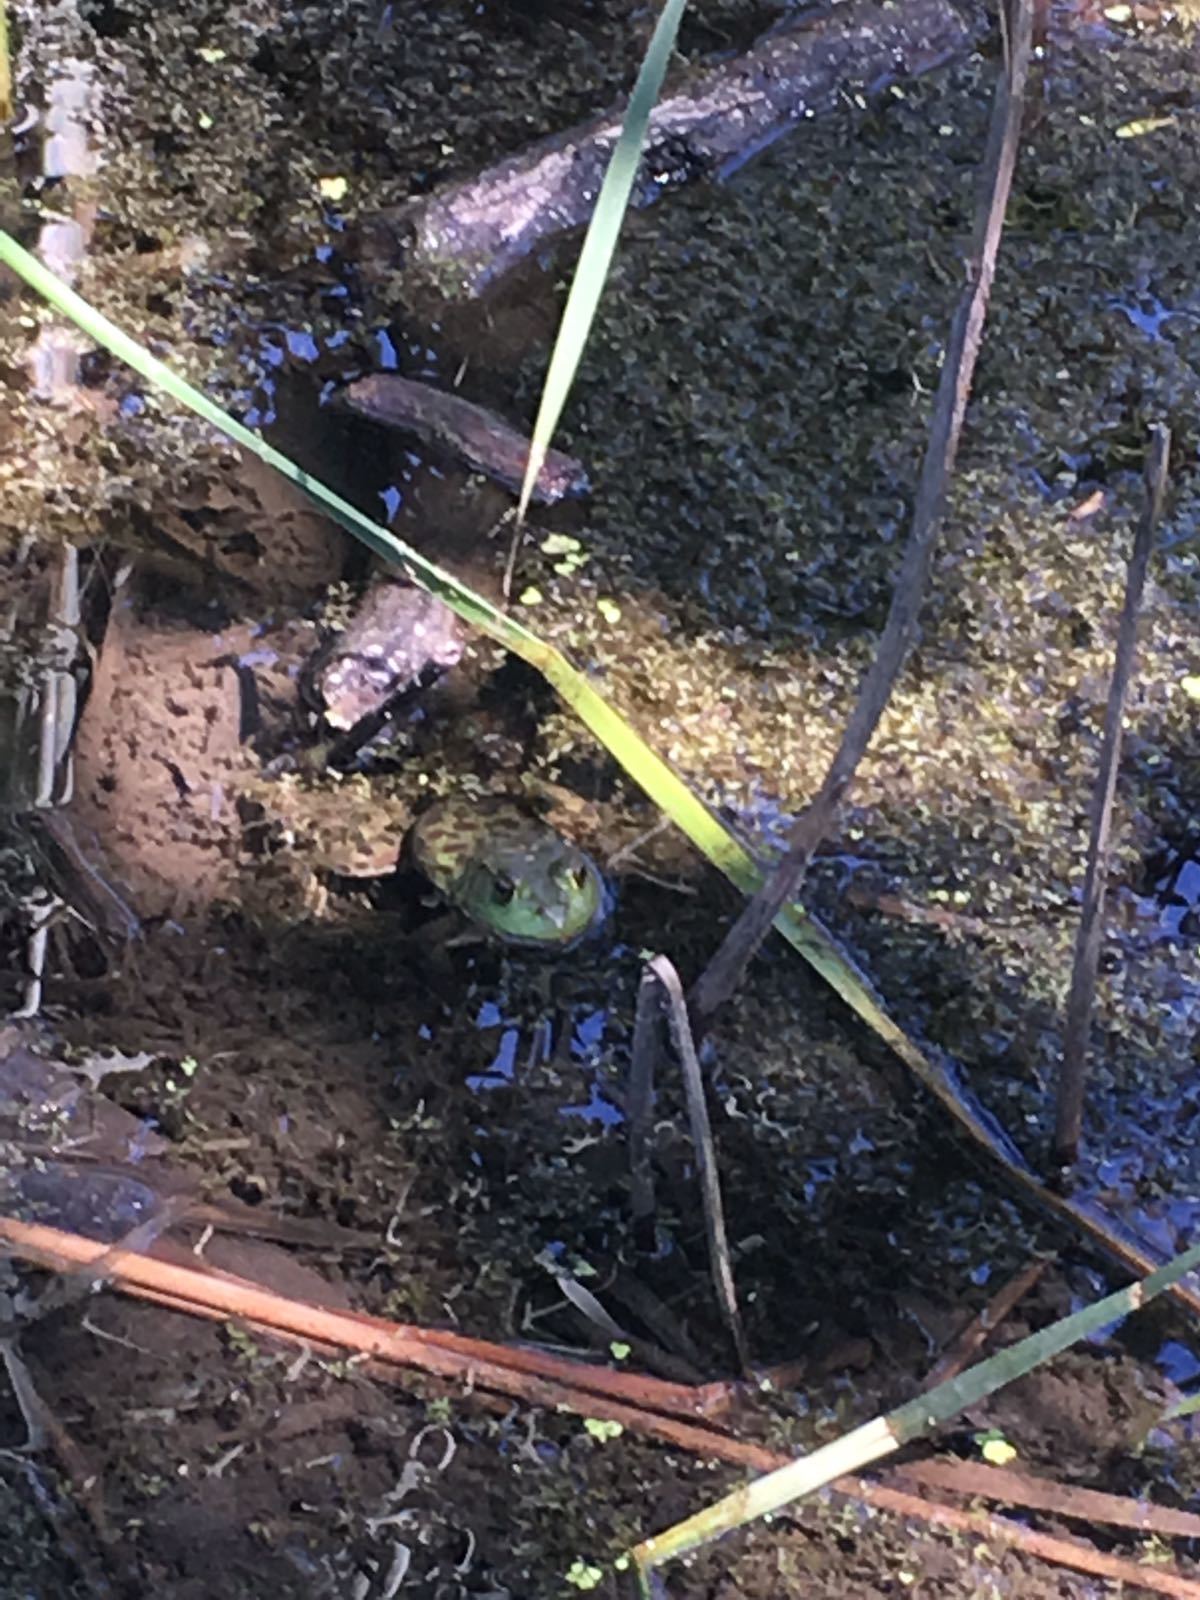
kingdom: Animalia
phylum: Chordata
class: Amphibia
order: Anura
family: Ranidae
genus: Lithobates
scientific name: Lithobates catesbeianus
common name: American bullfrog
